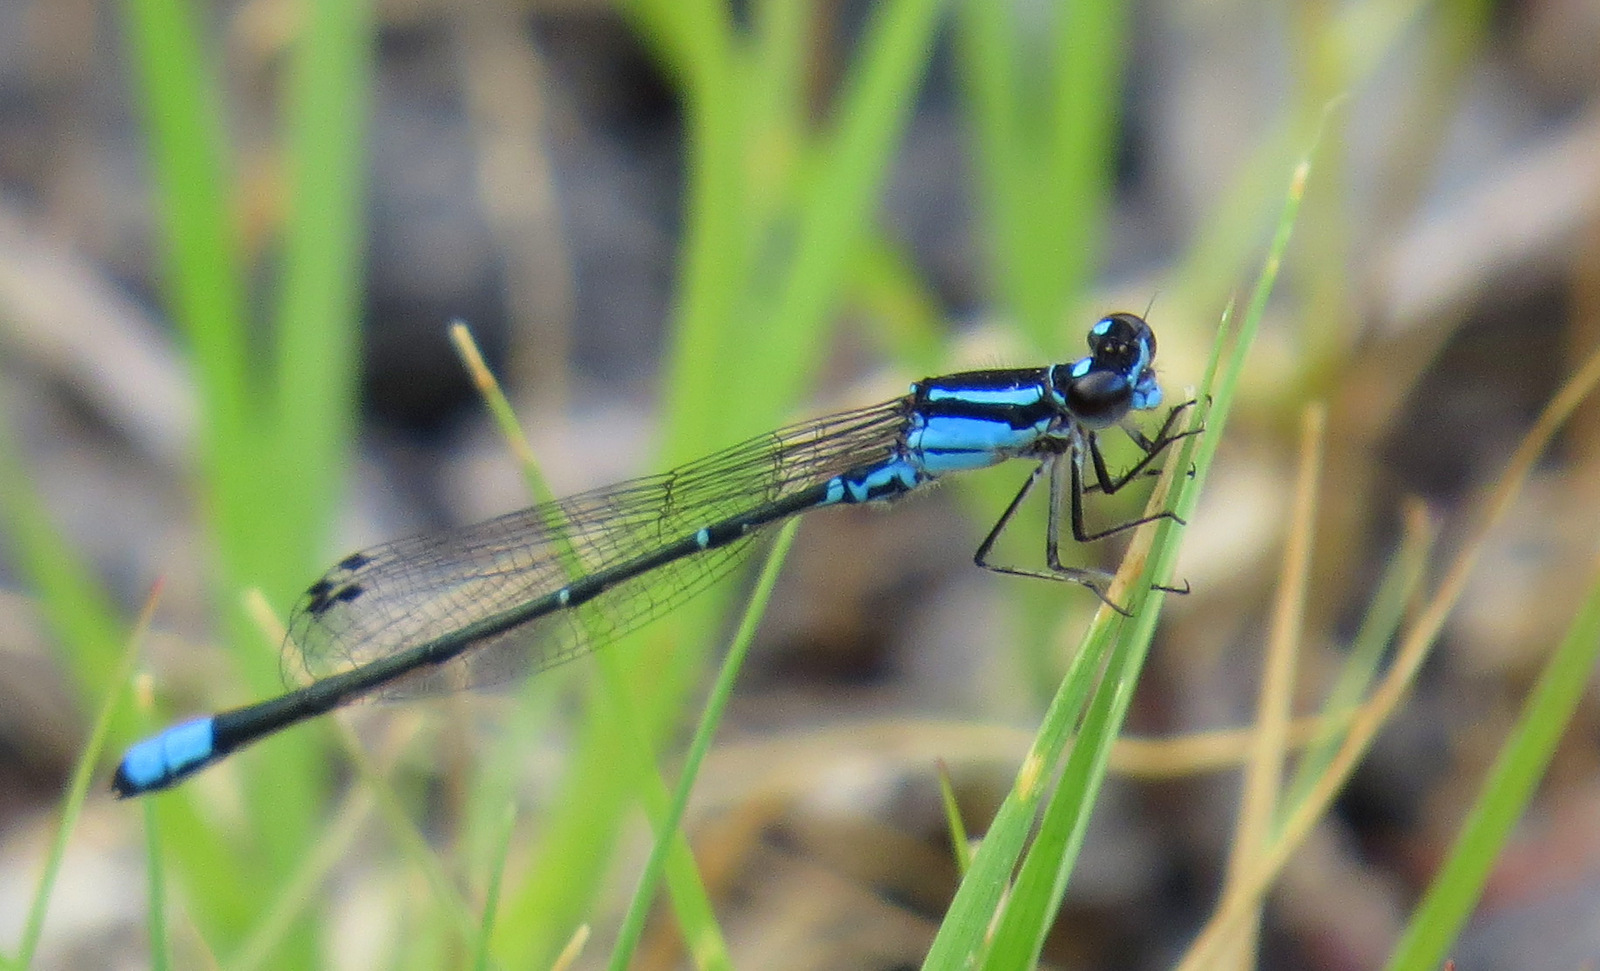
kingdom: Animalia
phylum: Arthropoda
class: Insecta
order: Odonata
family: Coenagrionidae
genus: Enallagma
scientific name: Enallagma geminatum
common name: Skimming bluet
